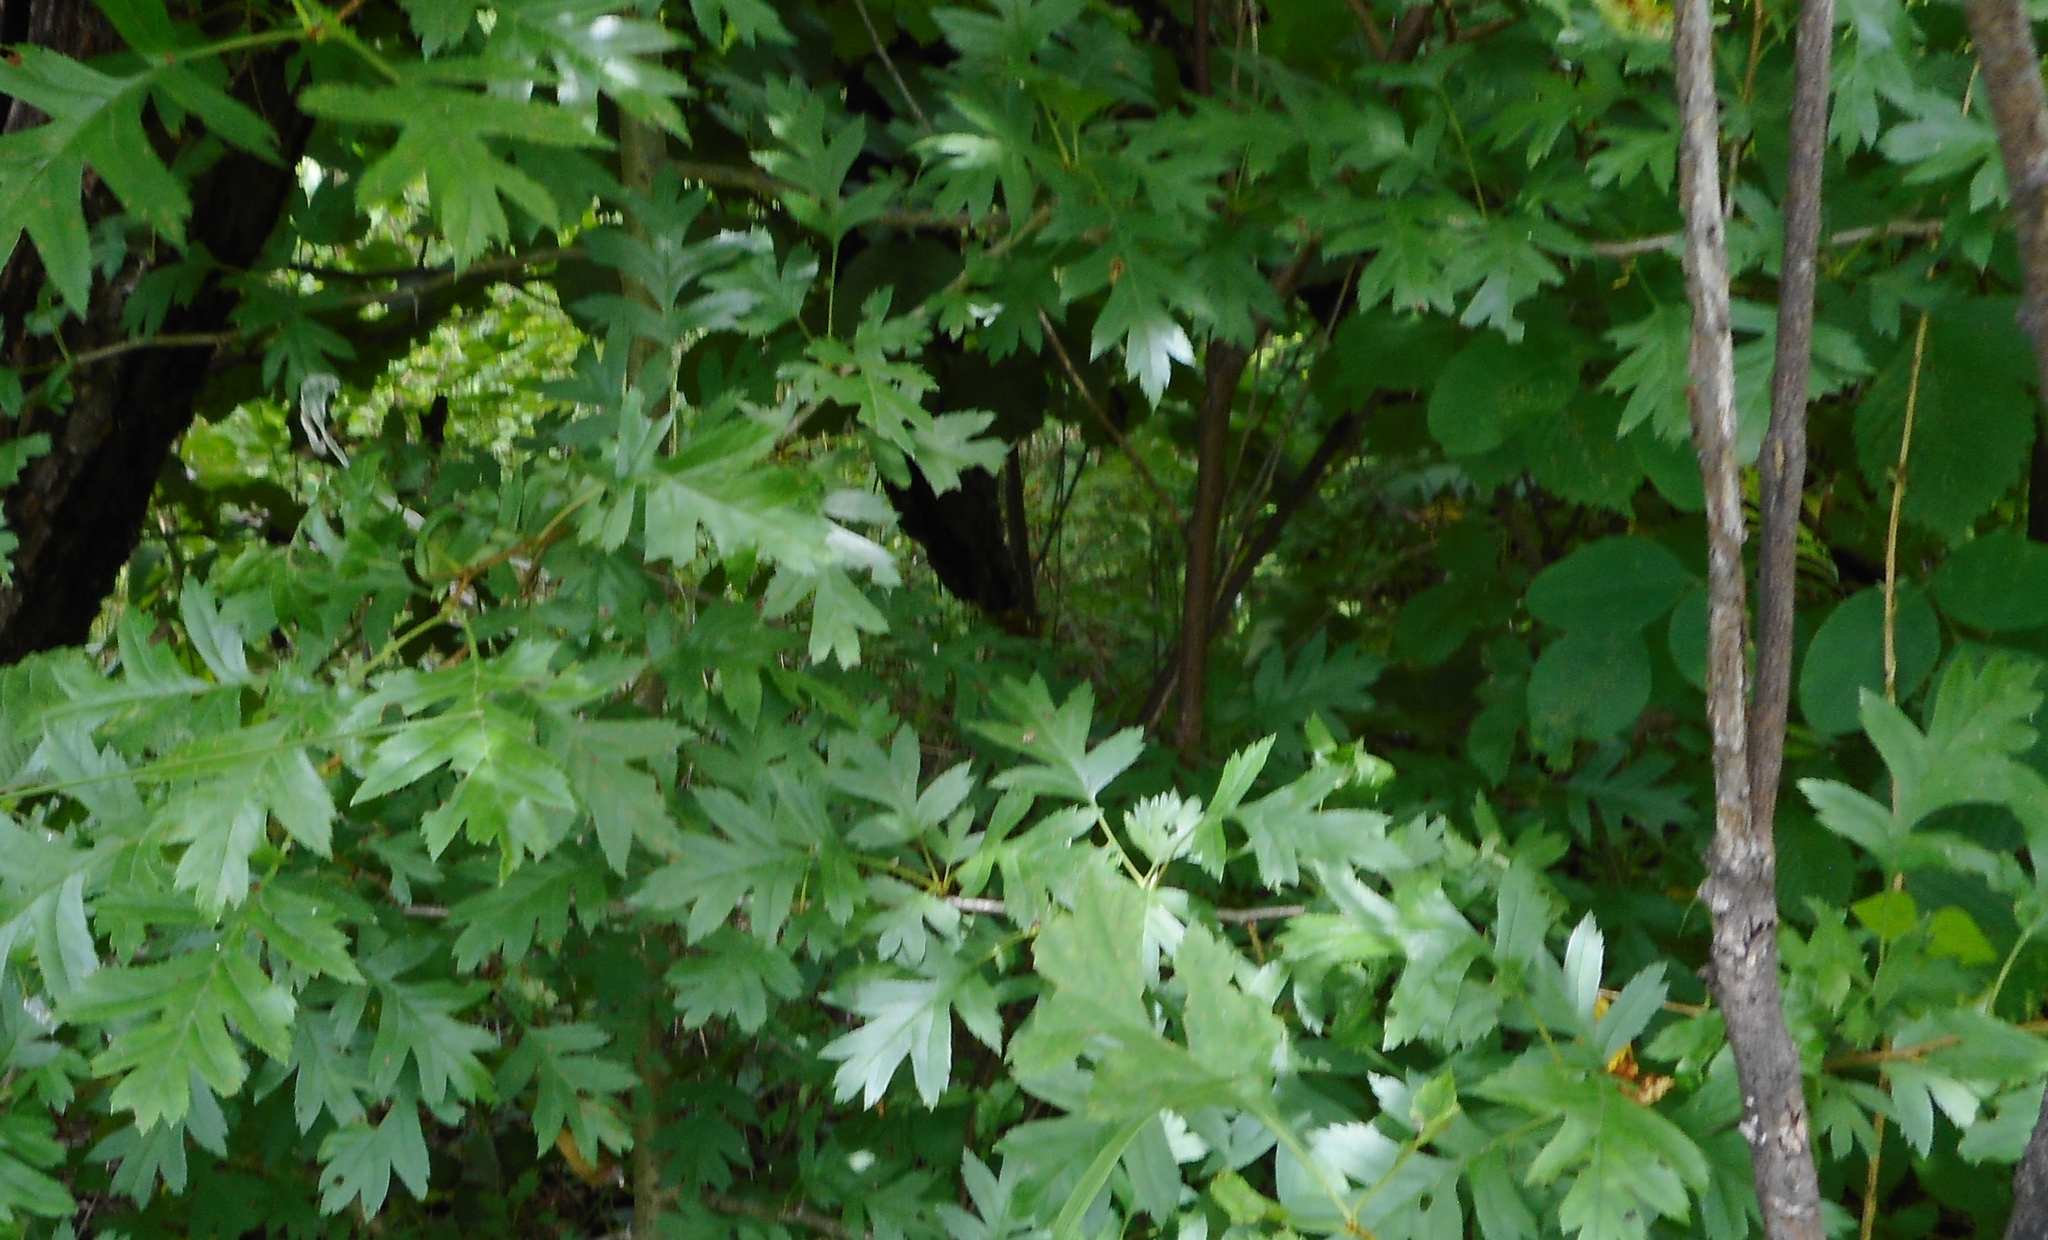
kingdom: Plantae
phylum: Tracheophyta
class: Magnoliopsida
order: Rosales
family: Rosaceae
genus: Crataegus
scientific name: Crataegus pinnatifida
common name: Chinese haw
